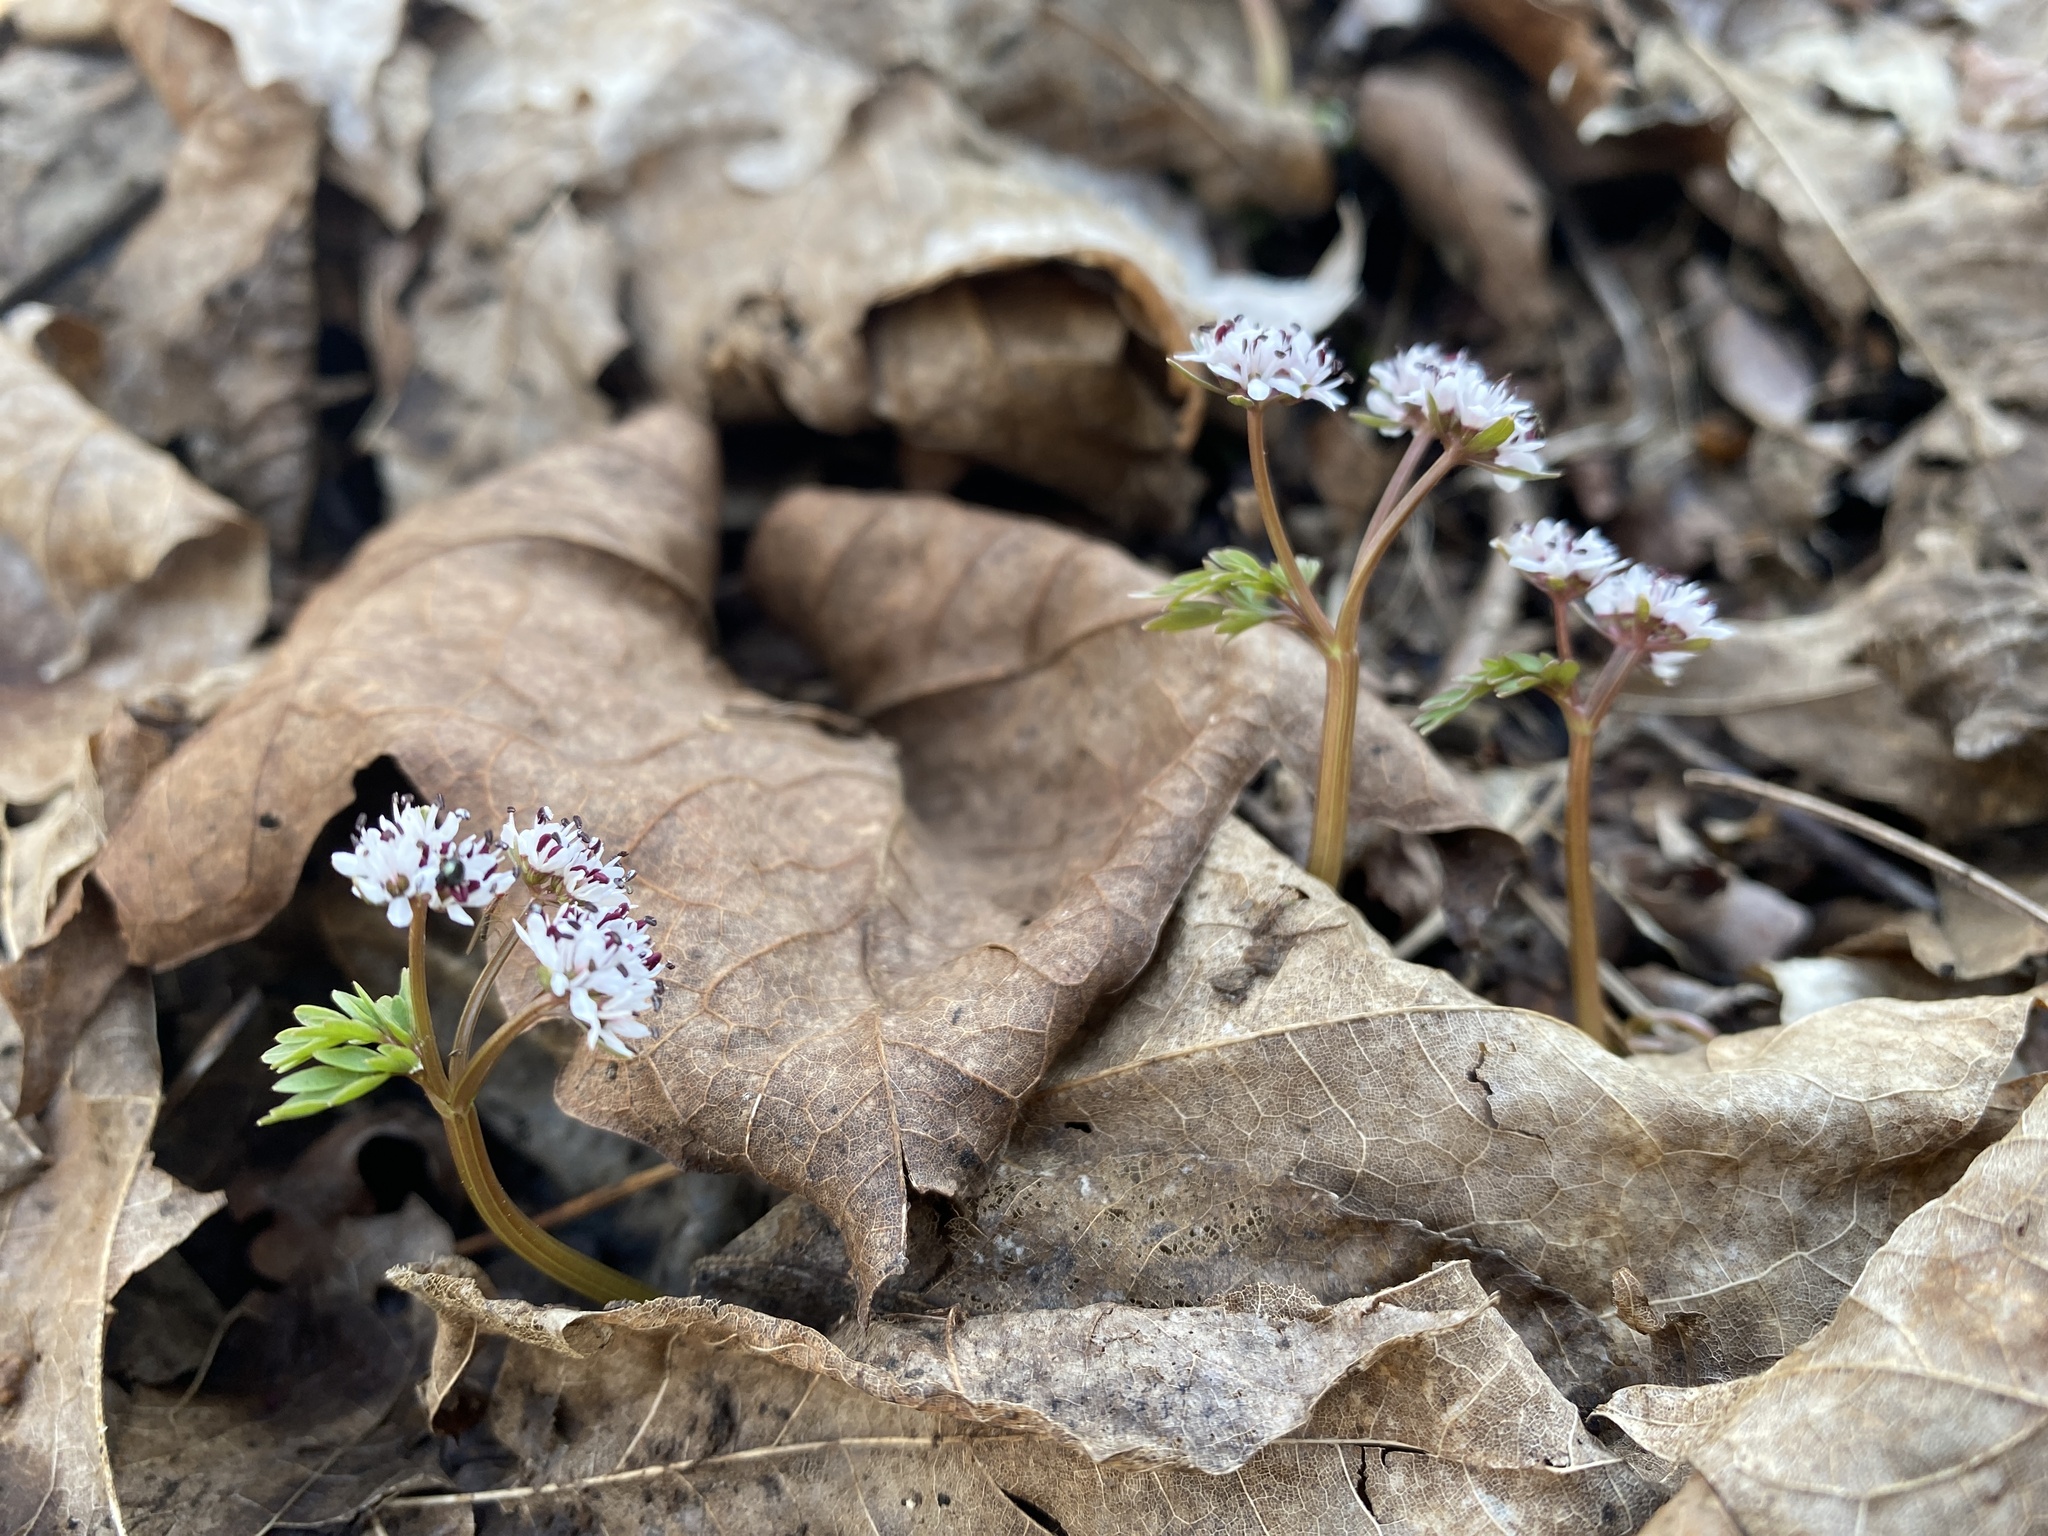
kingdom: Plantae
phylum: Tracheophyta
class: Magnoliopsida
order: Apiales
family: Apiaceae
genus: Erigenia
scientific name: Erigenia bulbosa
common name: Pepper-and-salt
